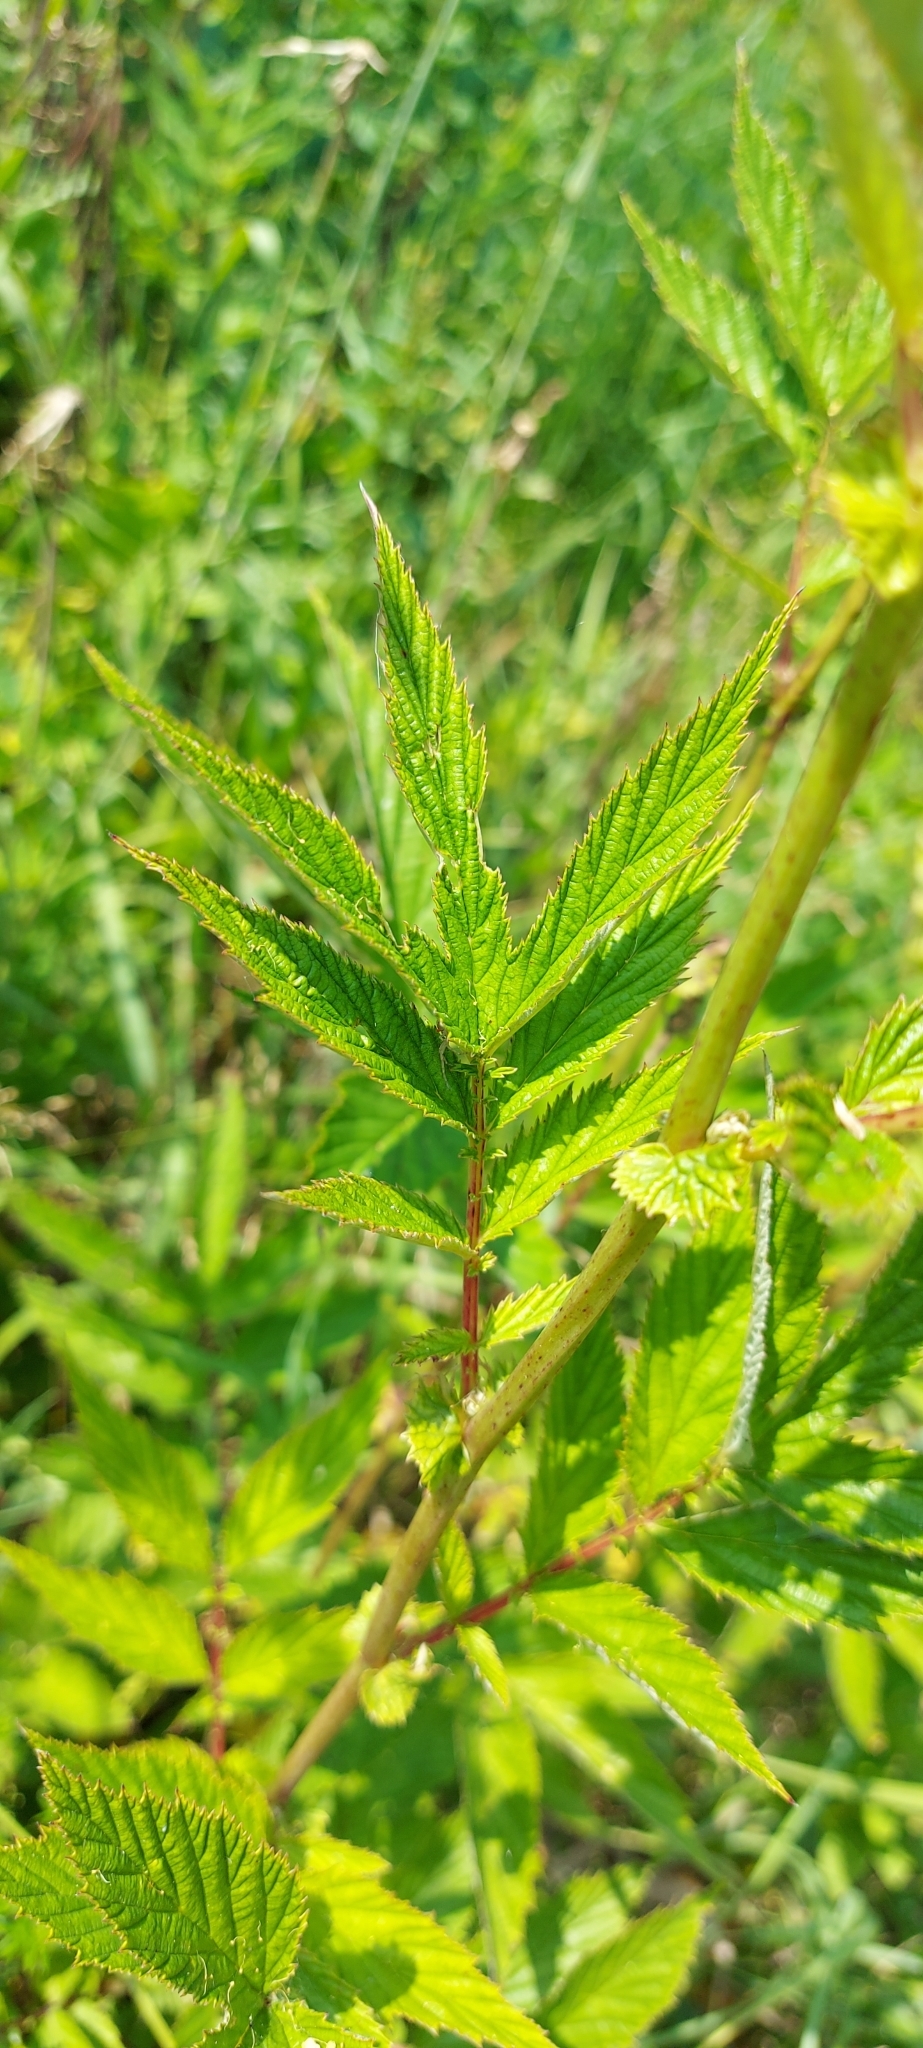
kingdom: Plantae
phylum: Tracheophyta
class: Magnoliopsida
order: Rosales
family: Rosaceae
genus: Filipendula
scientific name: Filipendula ulmaria
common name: Meadowsweet
